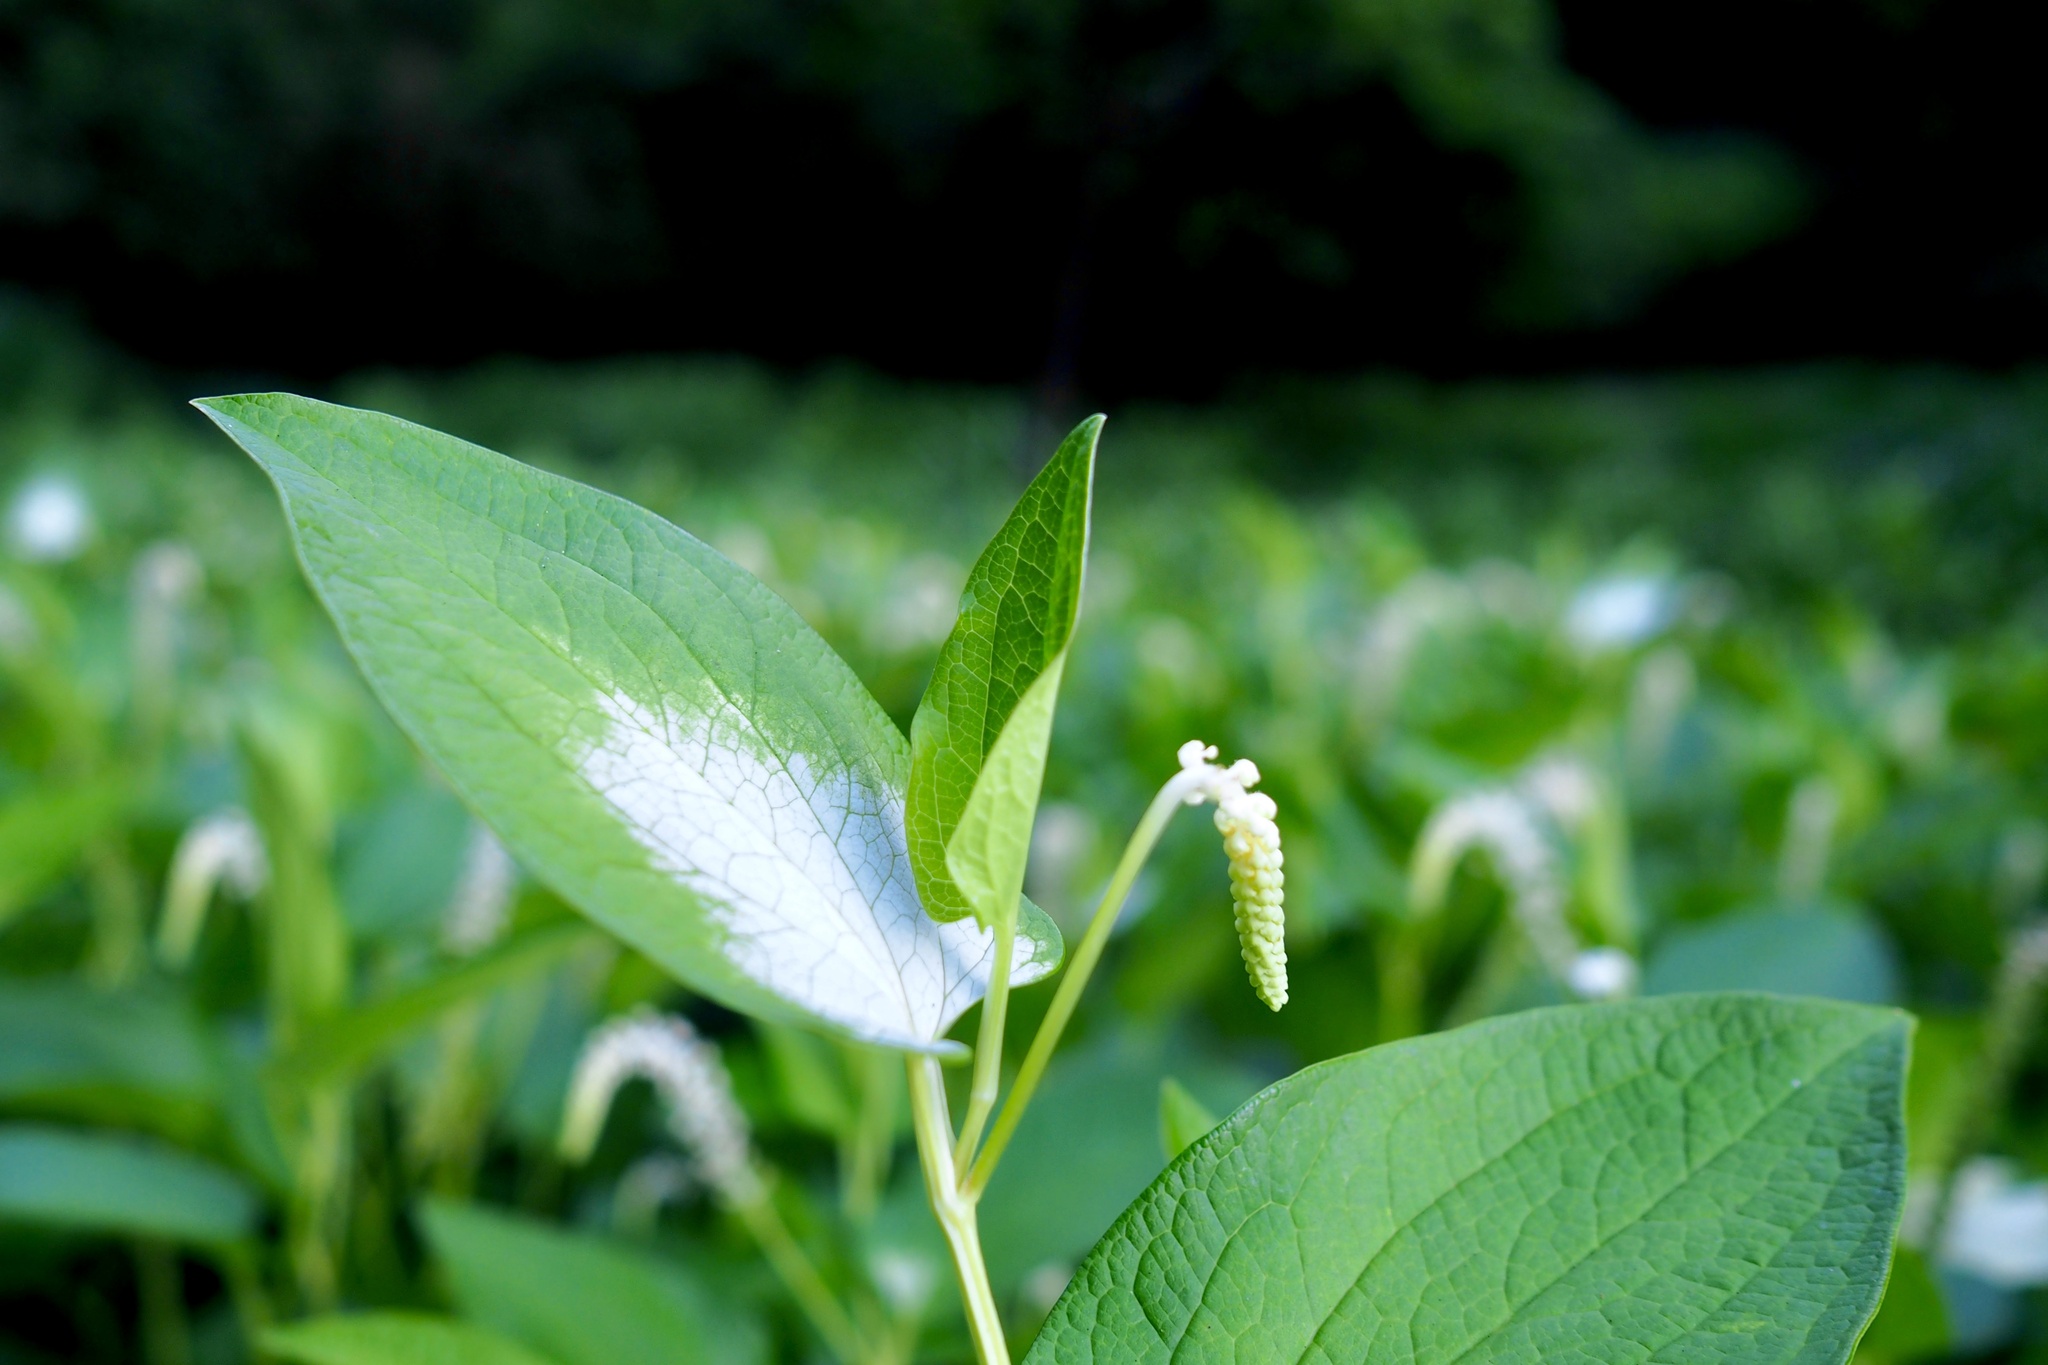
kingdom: Plantae
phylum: Tracheophyta
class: Magnoliopsida
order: Piperales
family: Saururaceae
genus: Saururus
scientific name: Saururus chinensis
